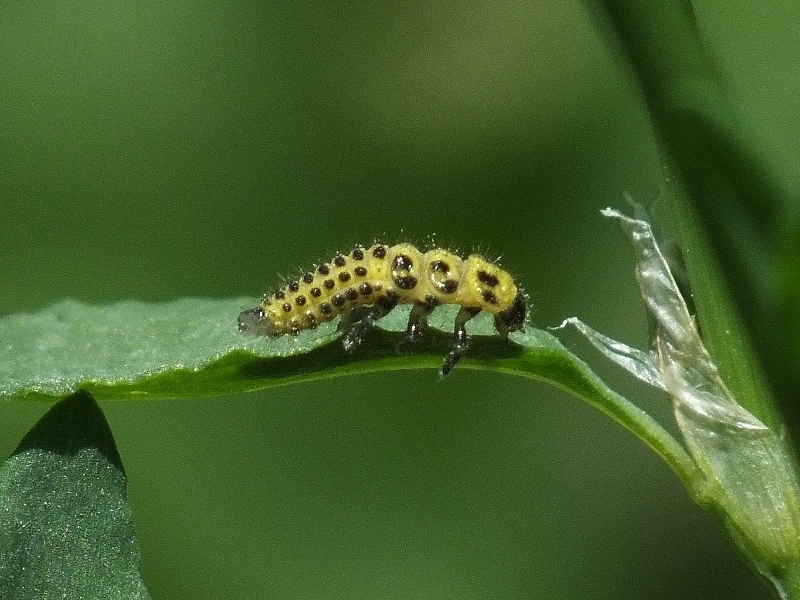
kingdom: Animalia
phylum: Arthropoda
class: Insecta
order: Coleoptera
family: Coccinellidae
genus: Psyllobora
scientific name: Psyllobora vigintiduopunctata
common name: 22-spot ladybird
